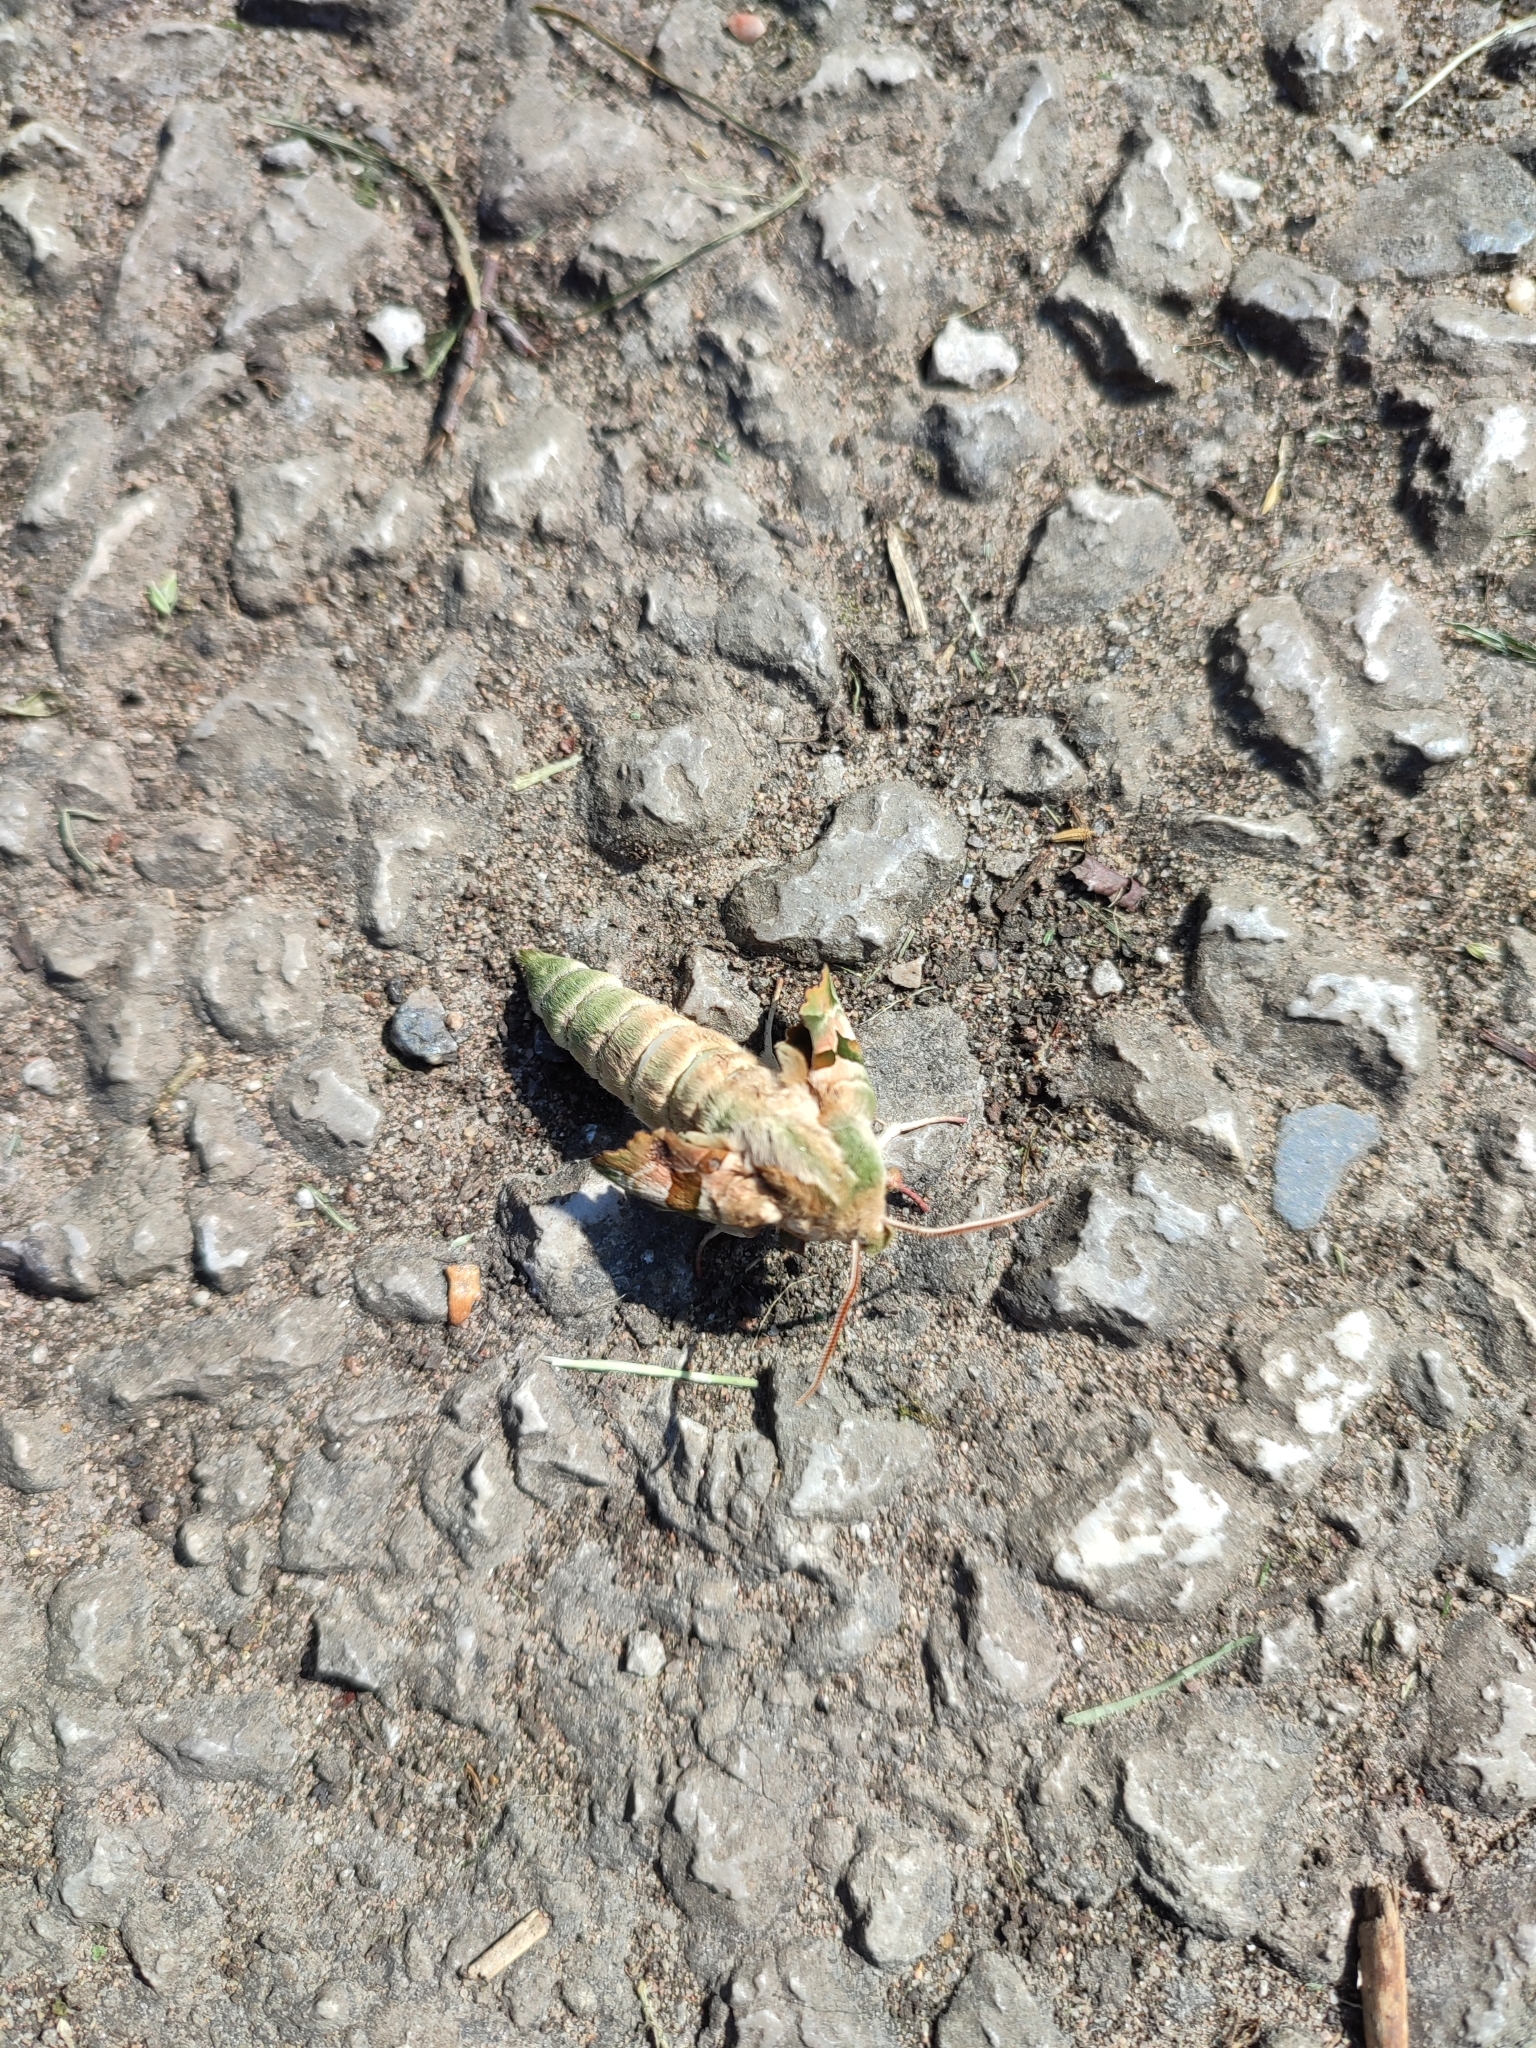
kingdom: Animalia
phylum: Arthropoda
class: Insecta
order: Lepidoptera
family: Sphingidae
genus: Mimas
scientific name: Mimas tiliae
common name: Lime hawk-moth
